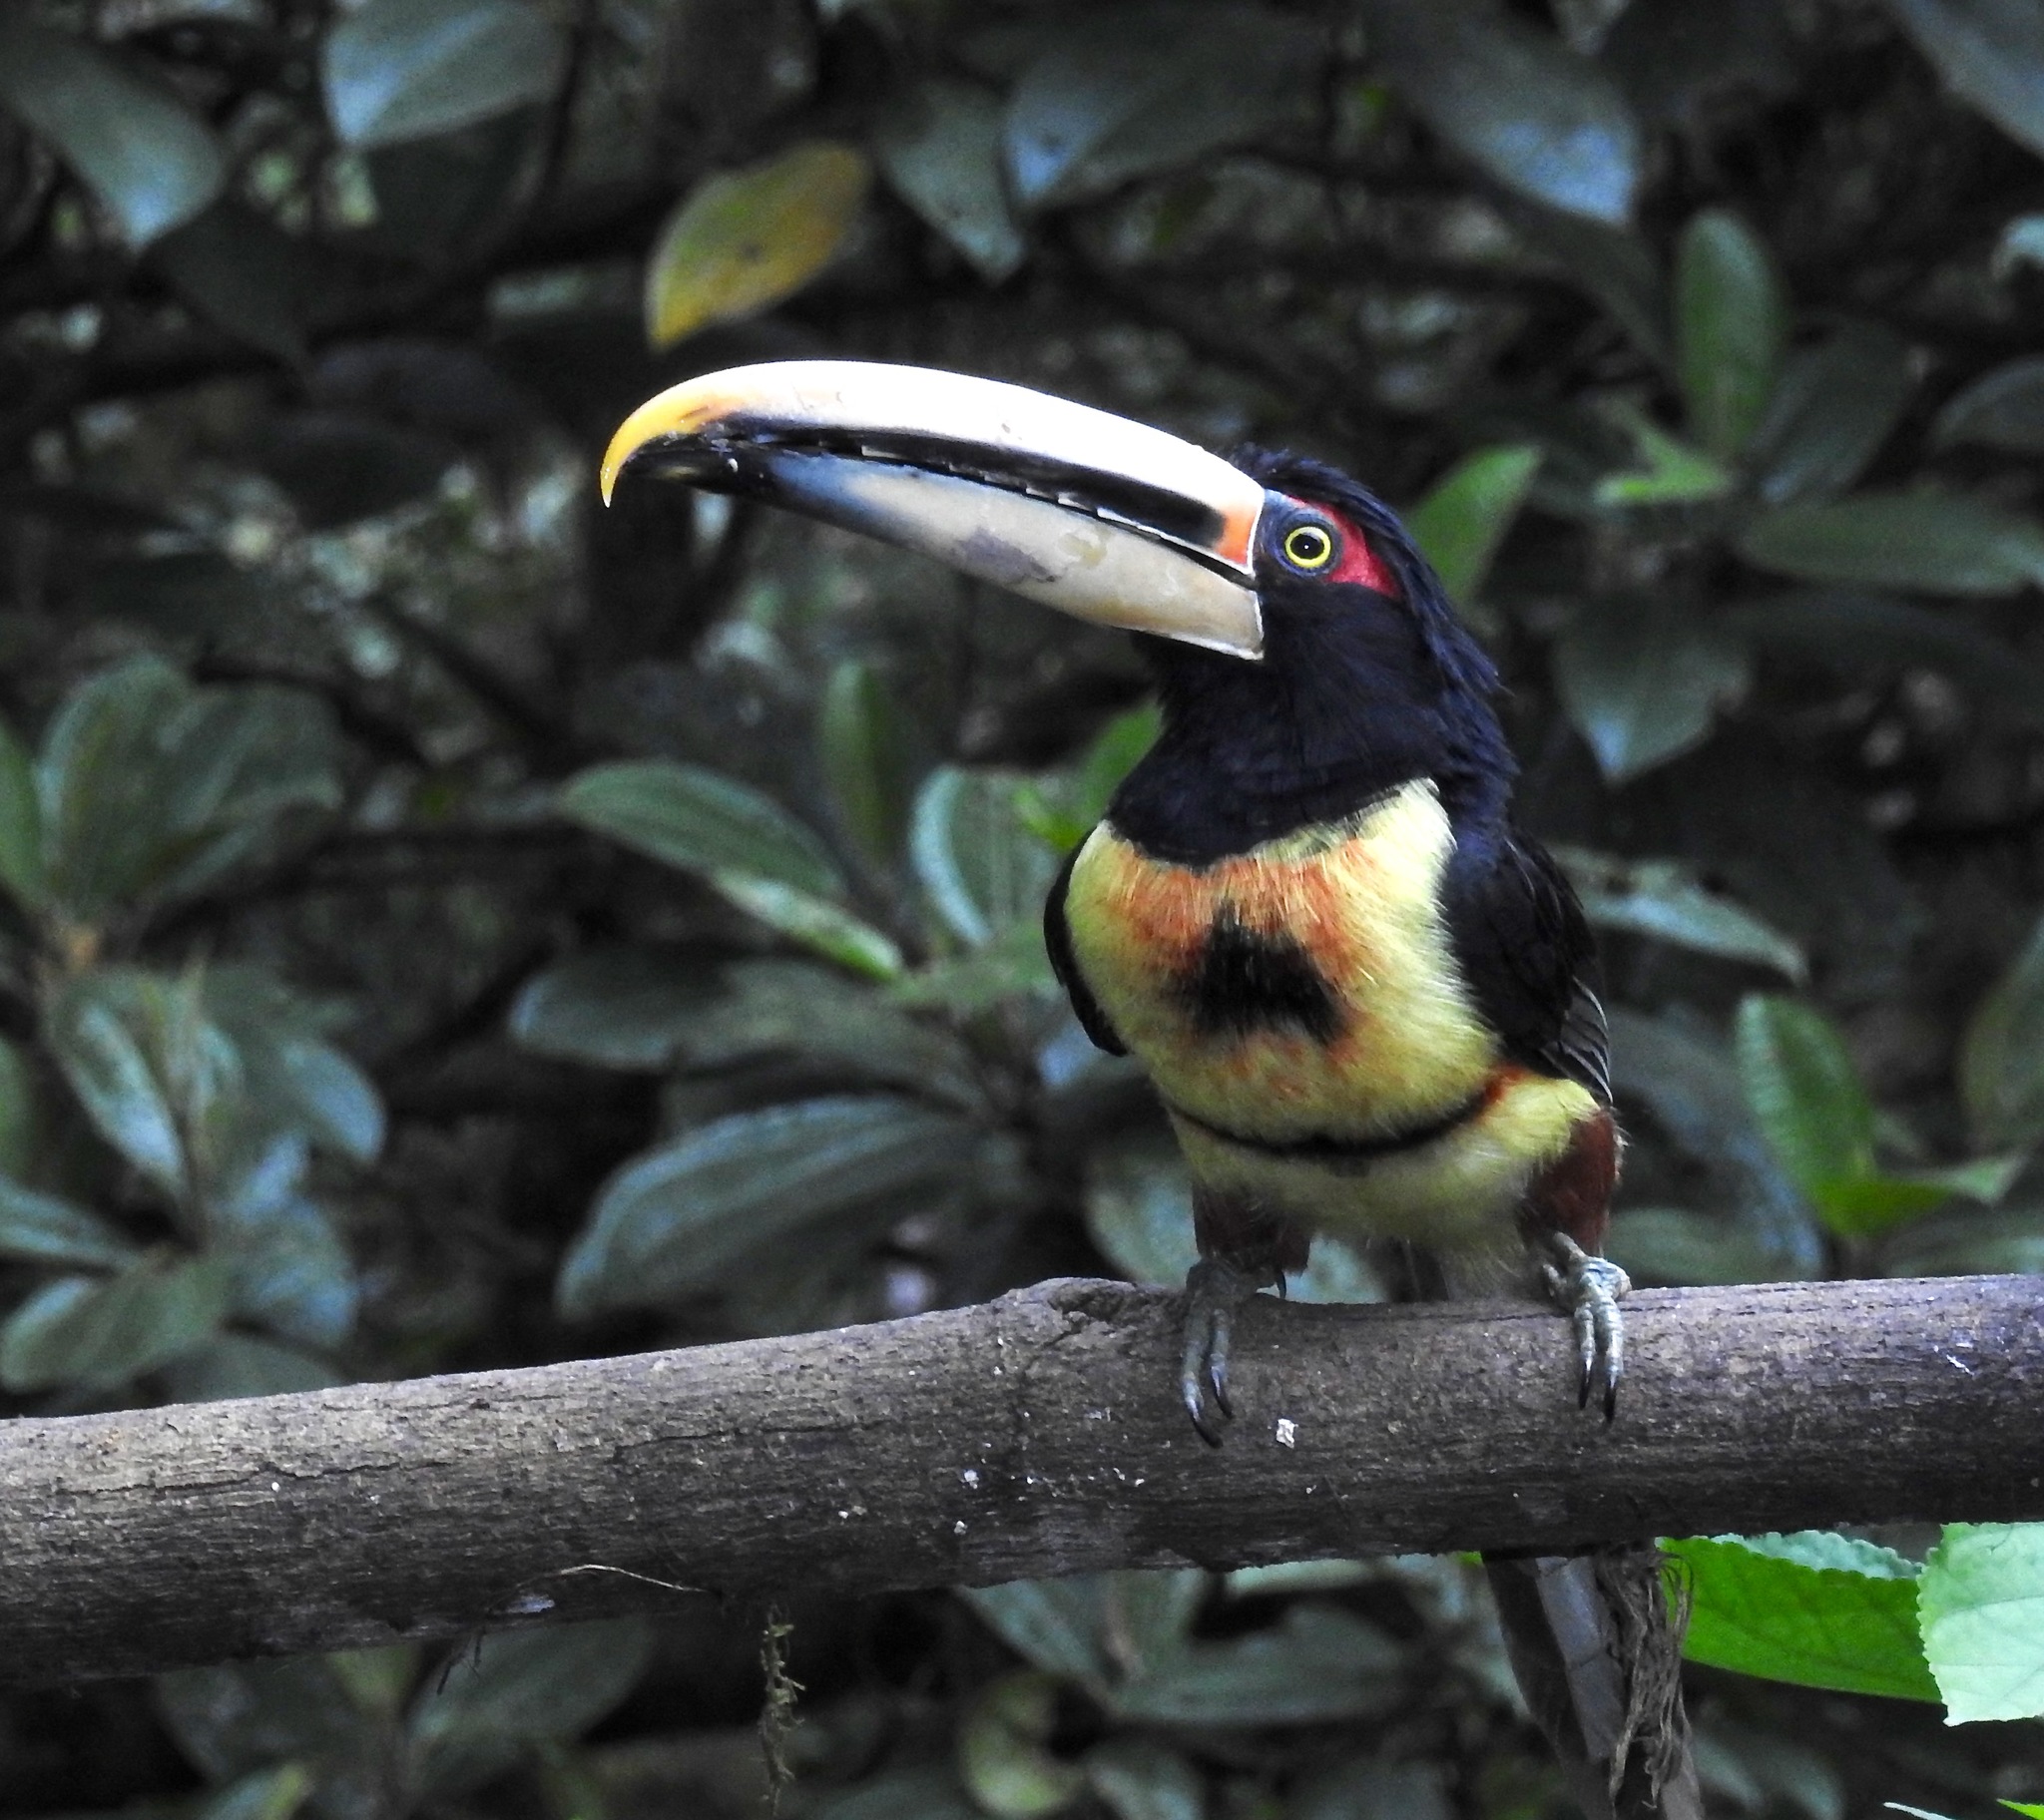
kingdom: Animalia
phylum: Chordata
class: Aves
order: Piciformes
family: Ramphastidae
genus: Pteroglossus
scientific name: Pteroglossus torquatus
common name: Collared aracari
